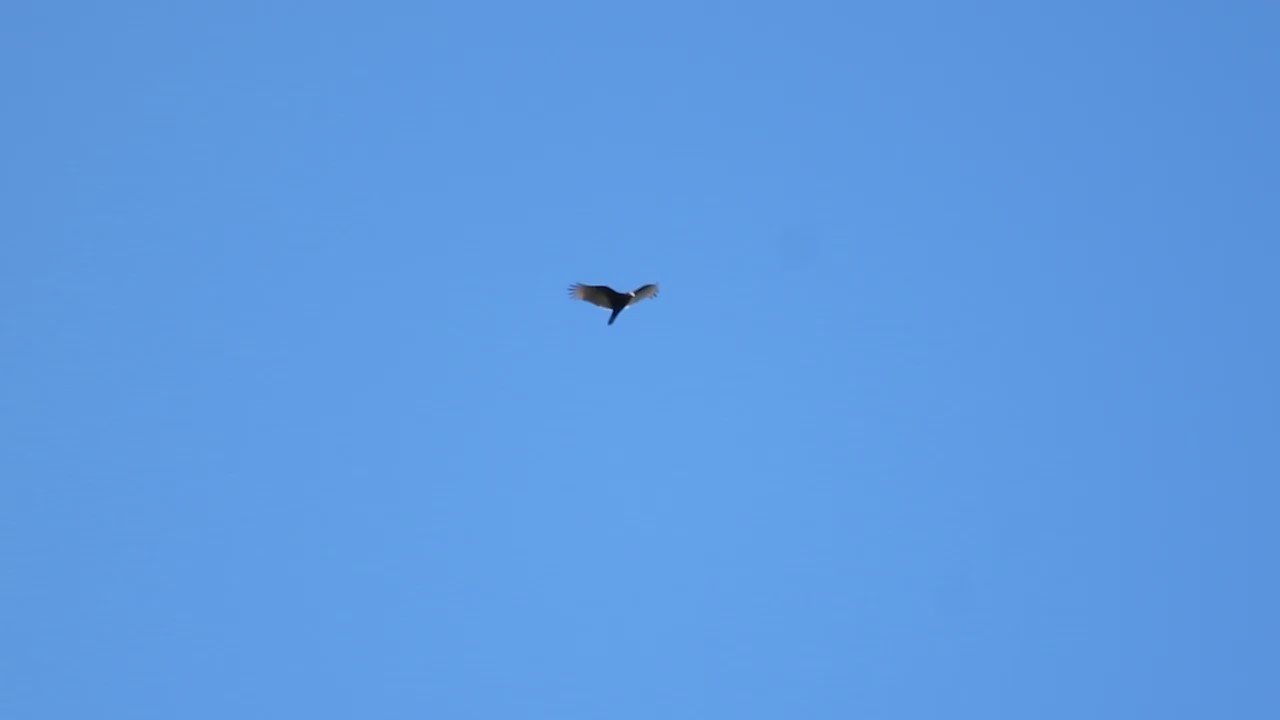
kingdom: Animalia
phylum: Chordata
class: Aves
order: Accipitriformes
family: Cathartidae
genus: Cathartes
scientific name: Cathartes aura
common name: Turkey vulture
